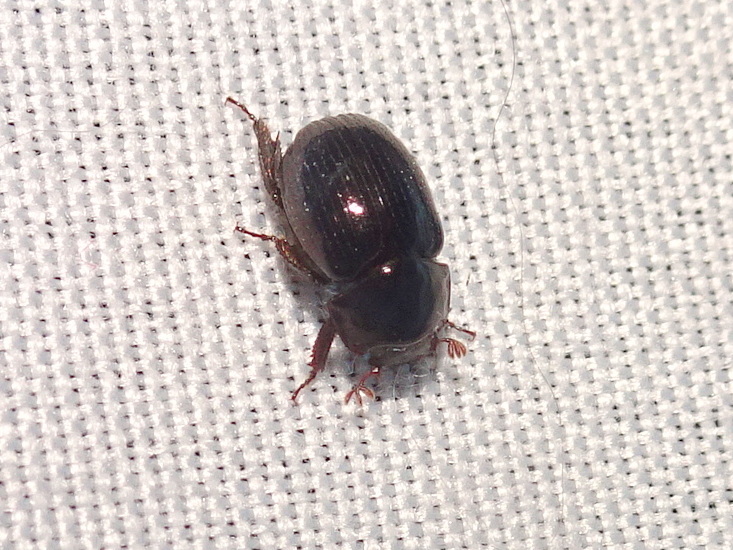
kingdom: Animalia
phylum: Arthropoda
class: Insecta
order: Coleoptera
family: Hybosoridae
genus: Germarostes
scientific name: Germarostes aphodioides
